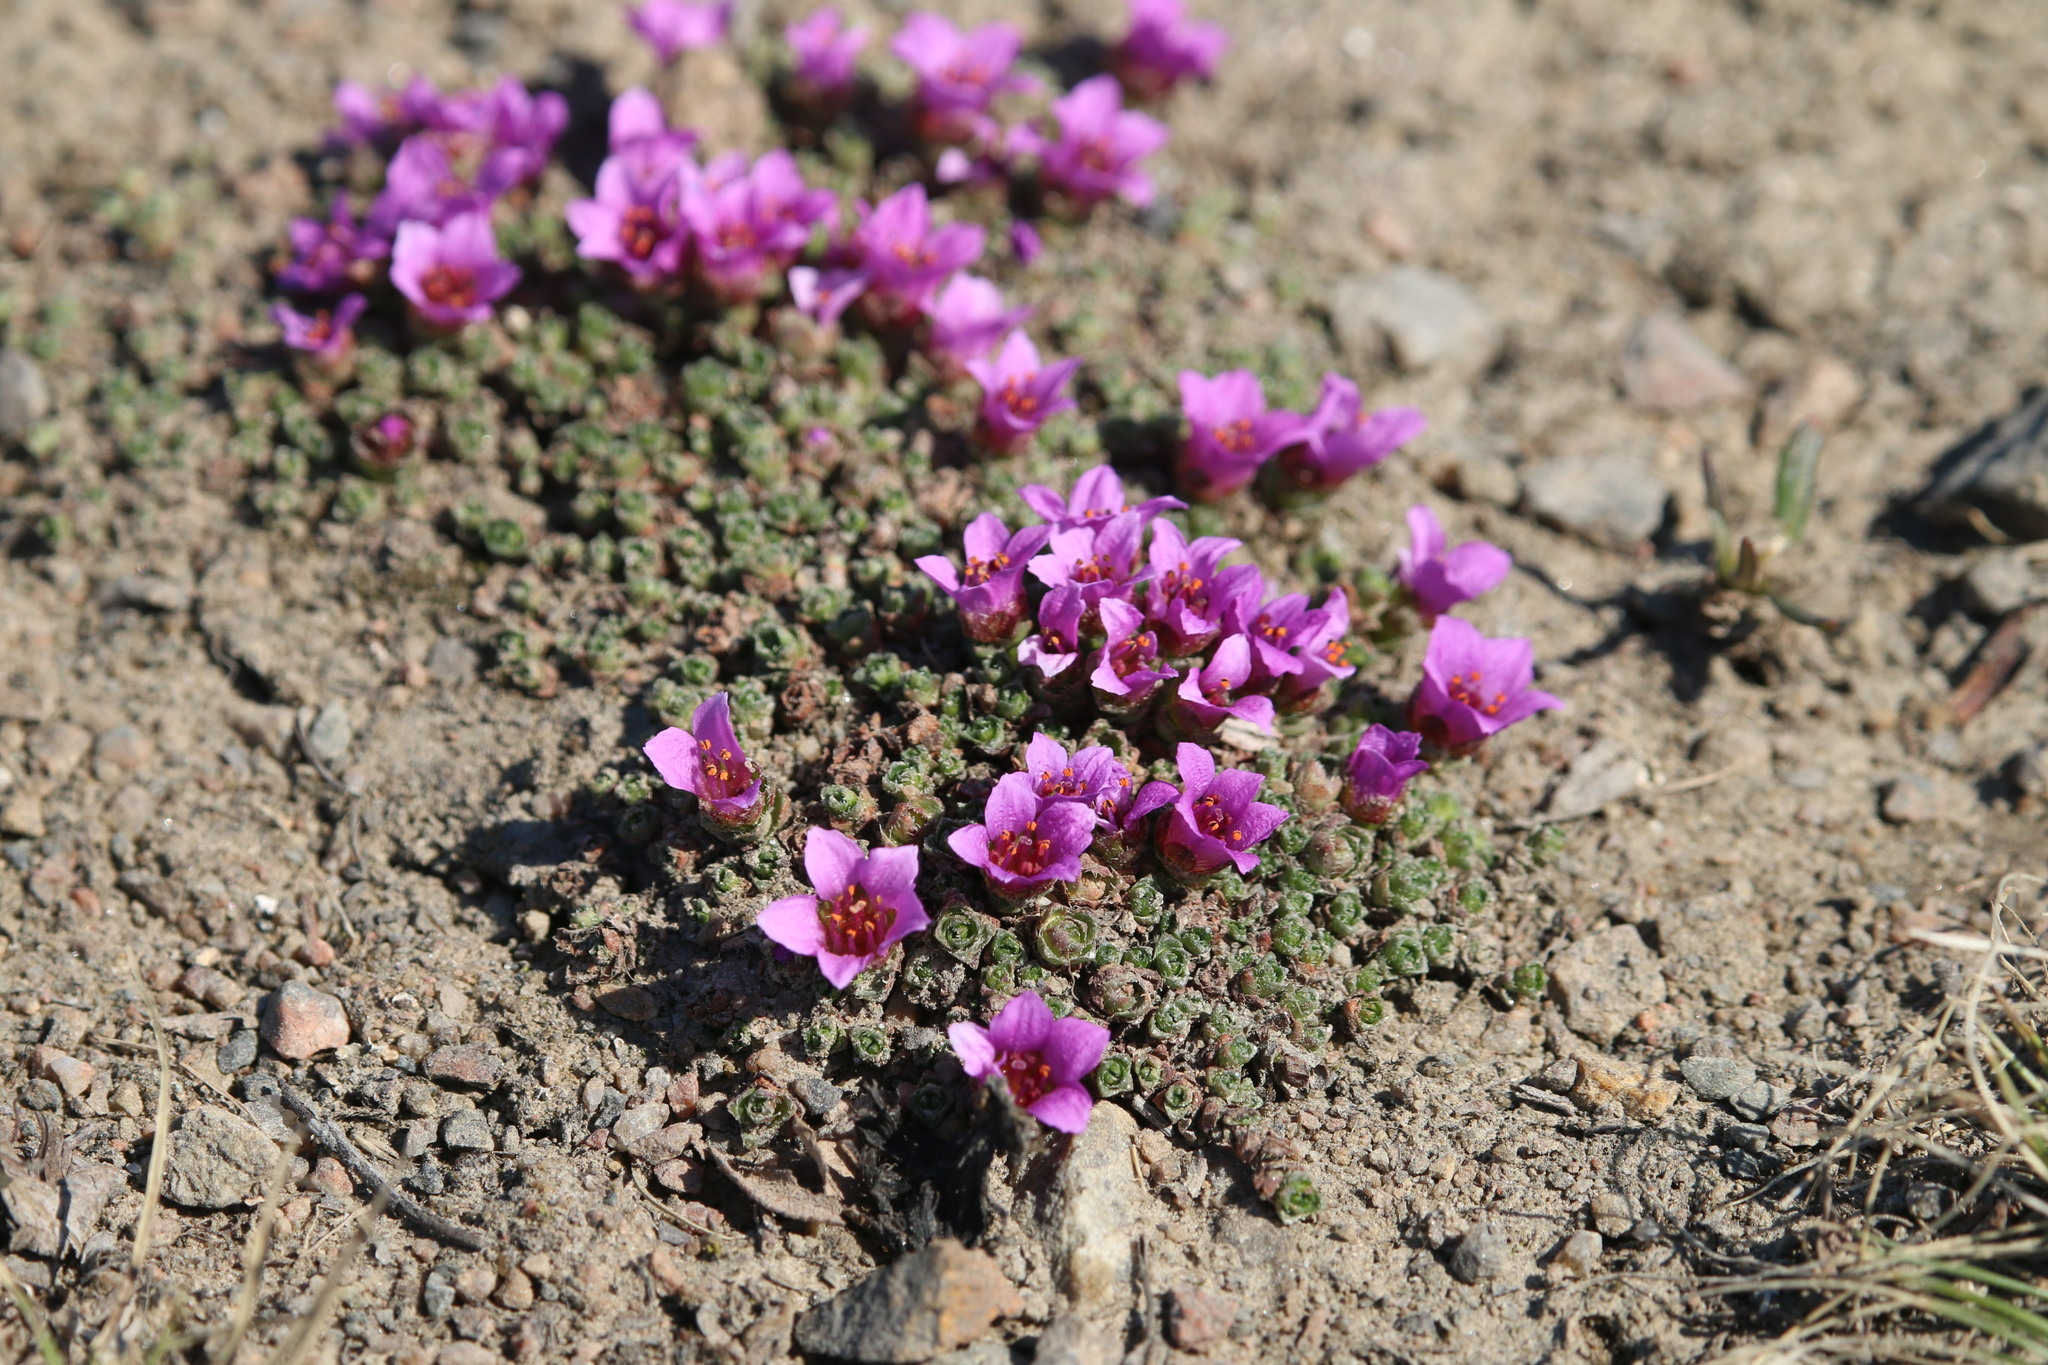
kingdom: Plantae
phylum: Tracheophyta
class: Magnoliopsida
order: Saxifragales
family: Saxifragaceae
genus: Saxifraga
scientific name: Saxifraga oppositifolia
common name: Purple saxifrage
